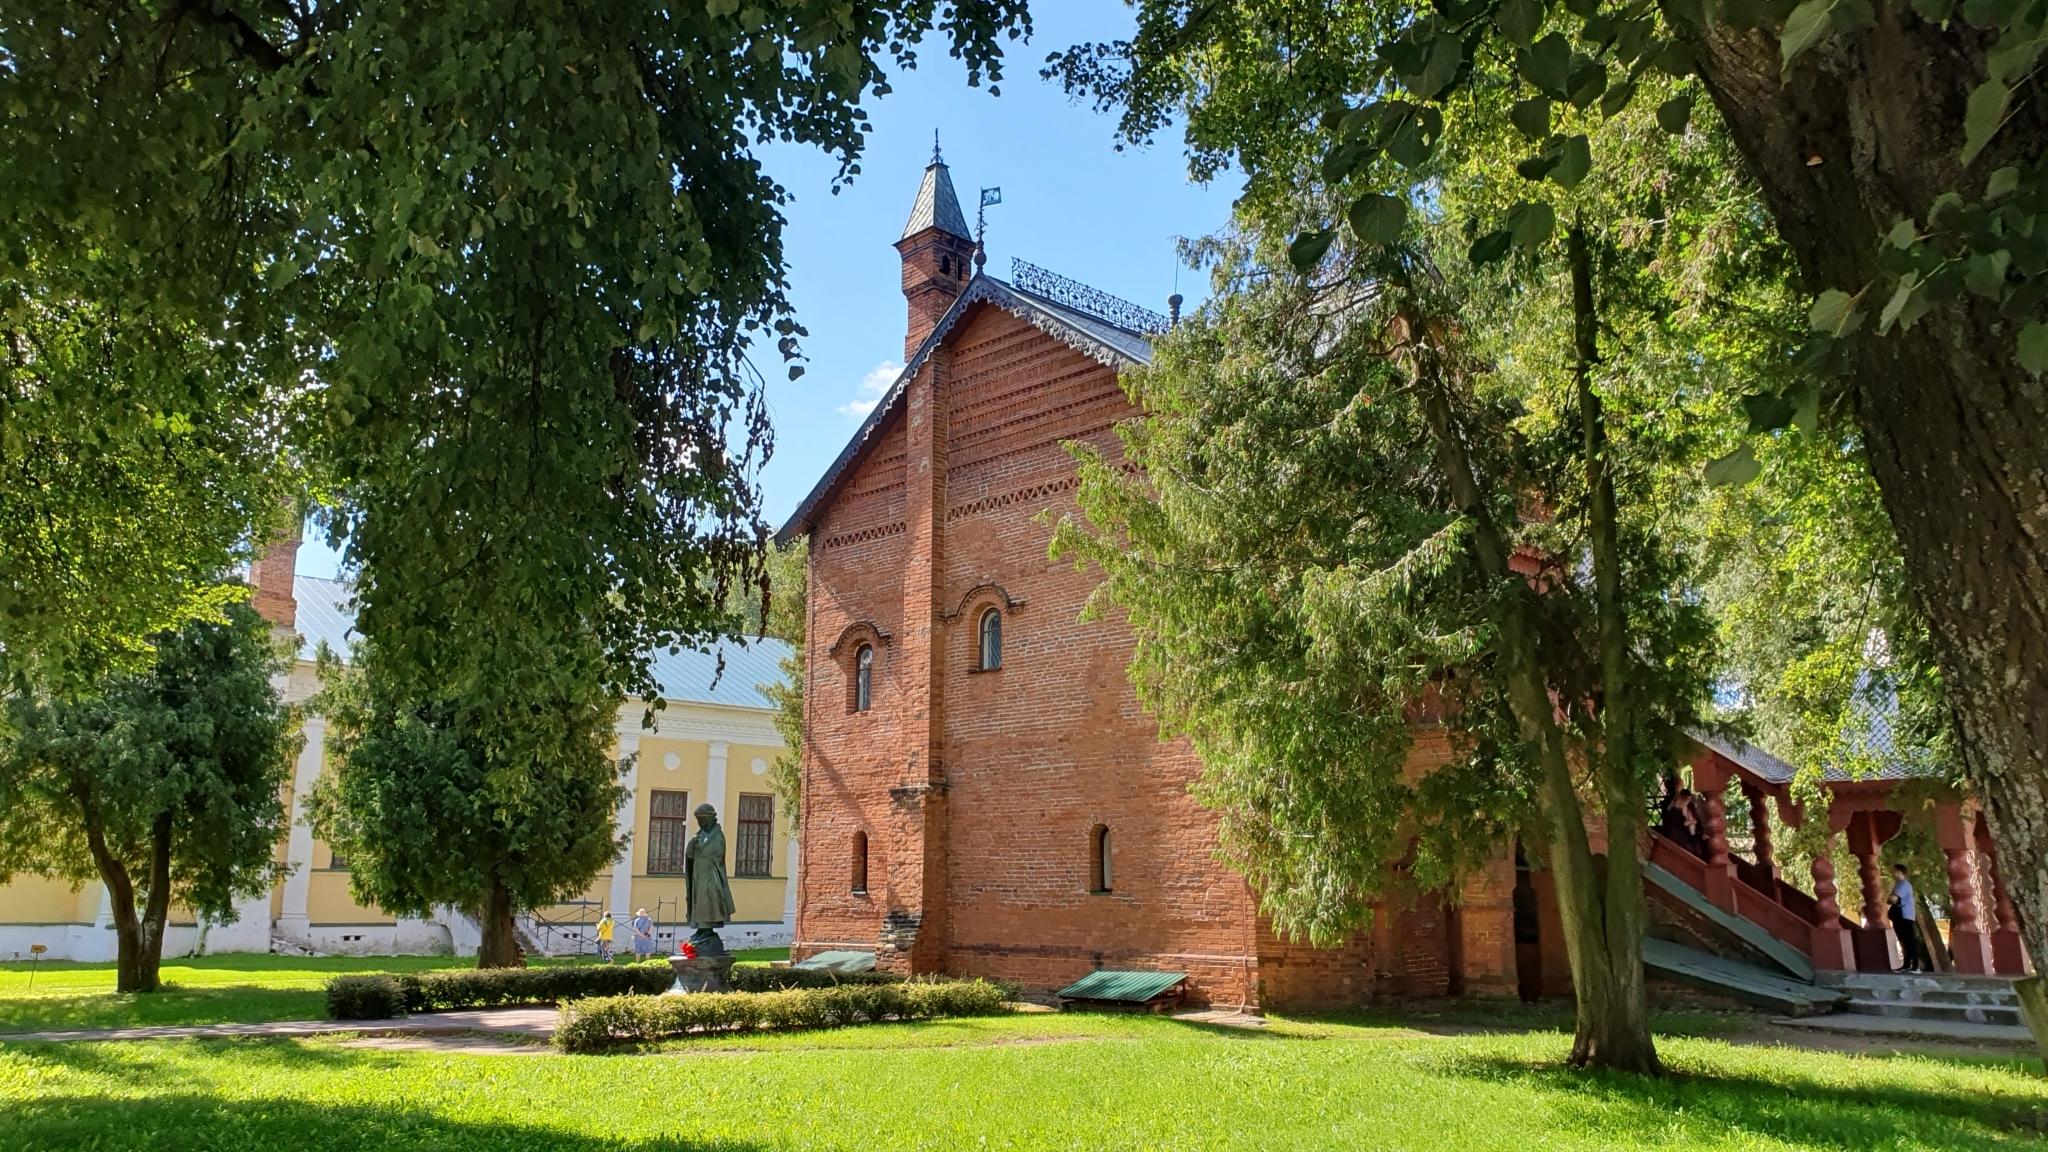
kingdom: Plantae
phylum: Tracheophyta
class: Magnoliopsida
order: Malvales
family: Malvaceae
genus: Tilia
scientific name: Tilia cordata
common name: Small-leaved lime
